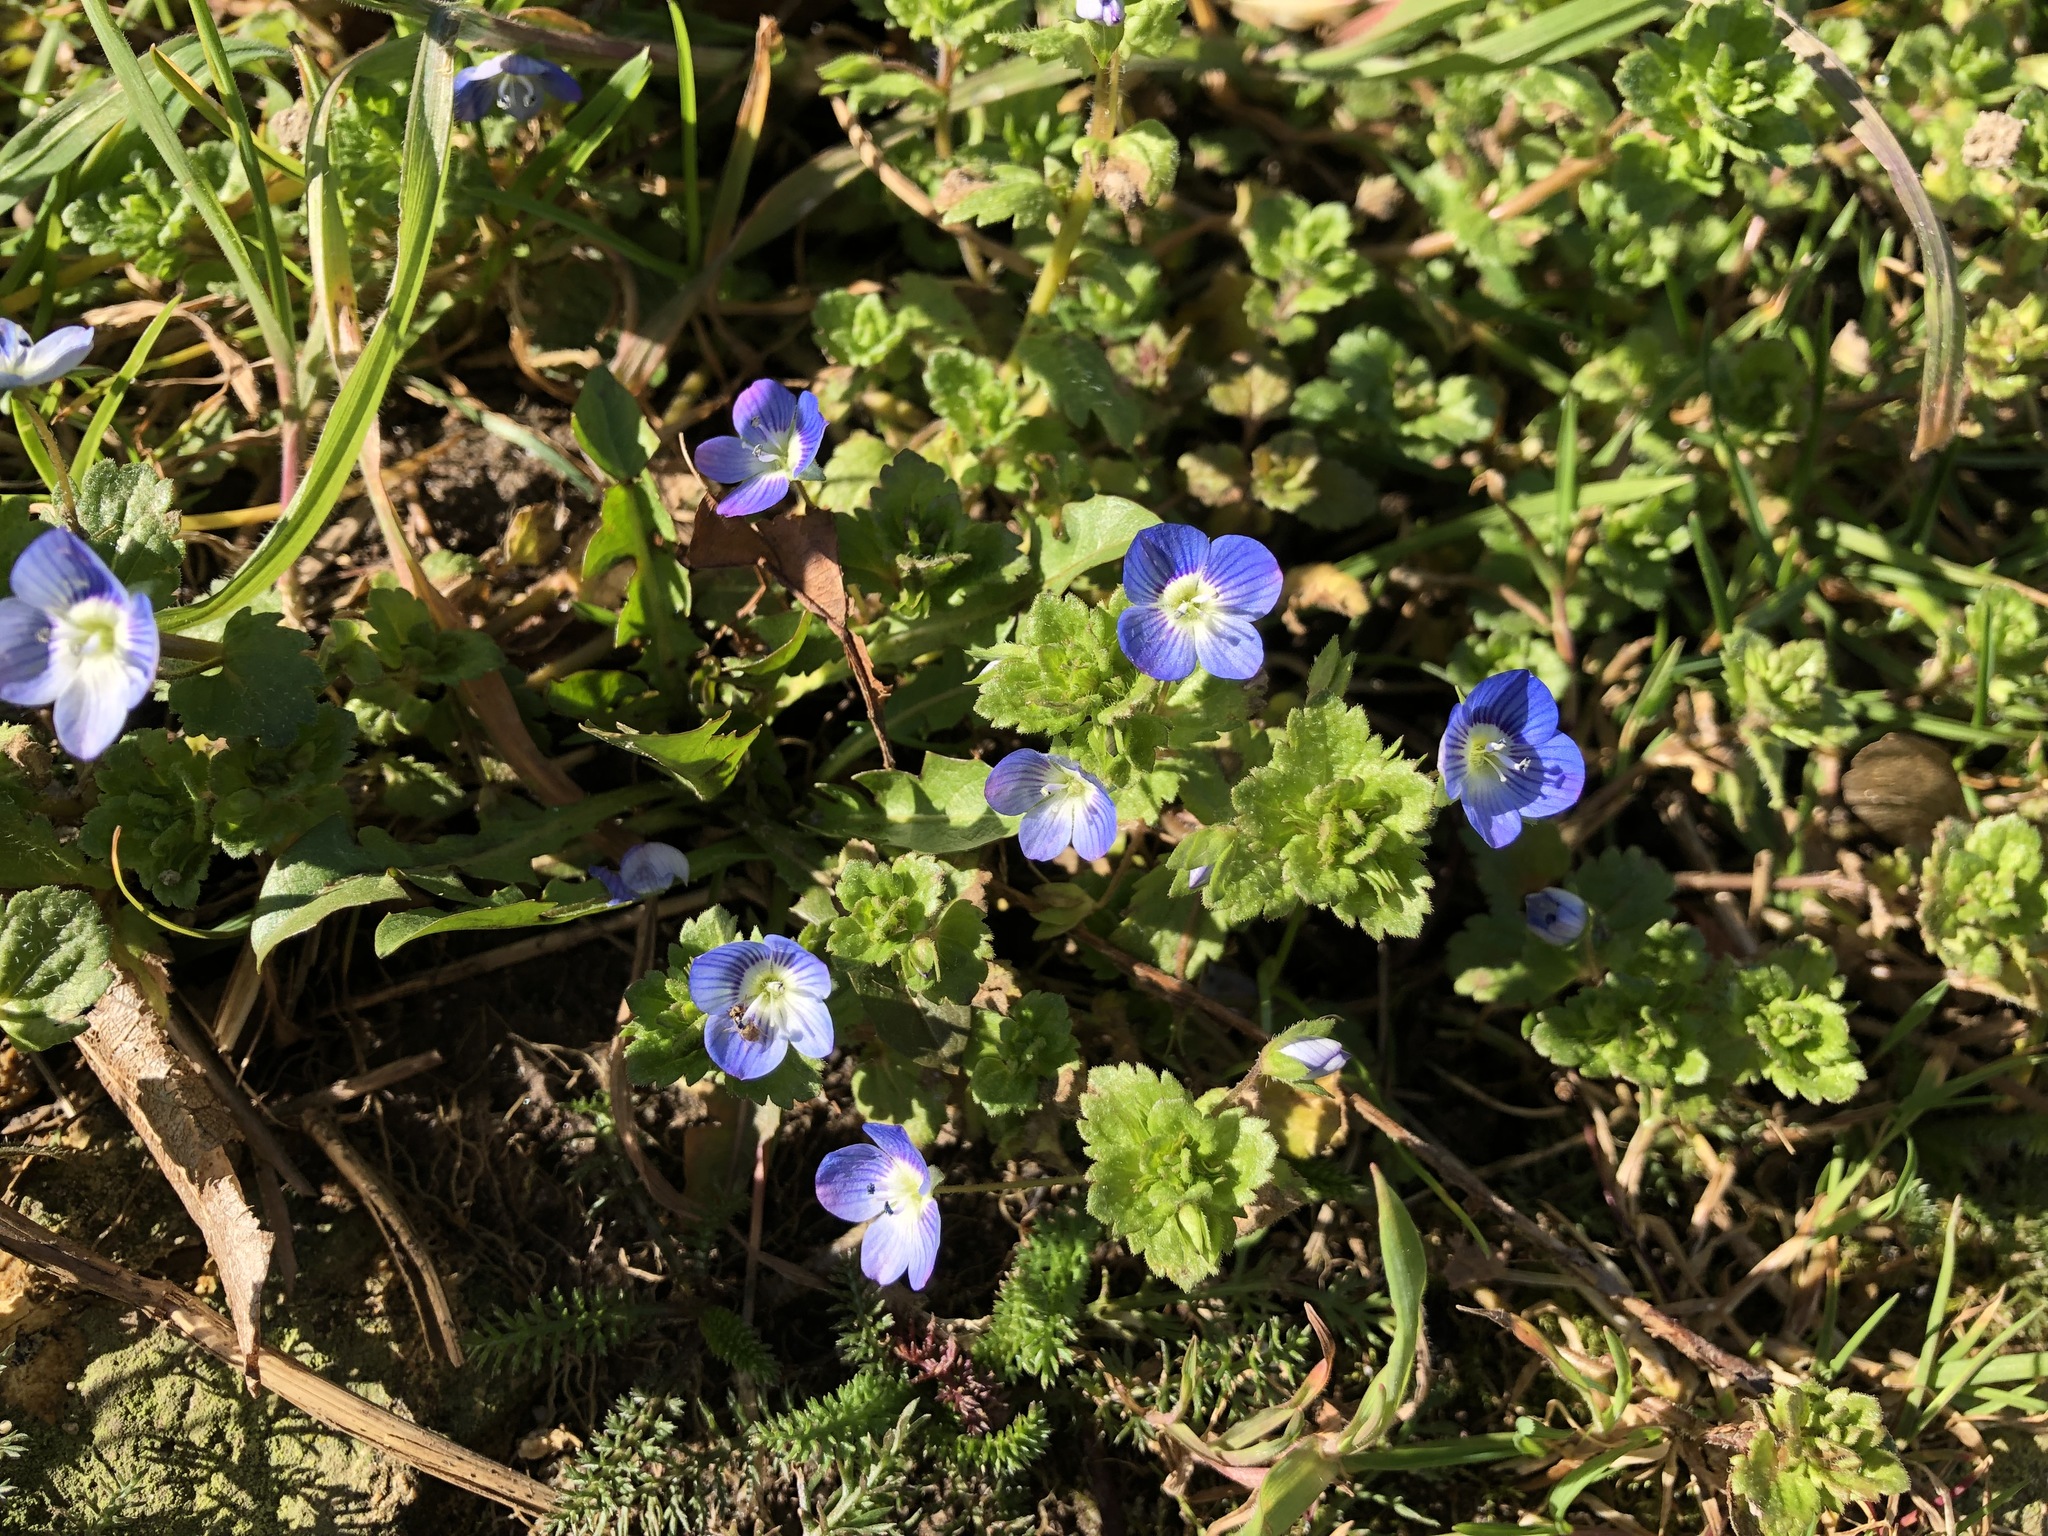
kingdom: Plantae
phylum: Tracheophyta
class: Magnoliopsida
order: Lamiales
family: Plantaginaceae
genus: Veronica
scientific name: Veronica persica
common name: Common field-speedwell
